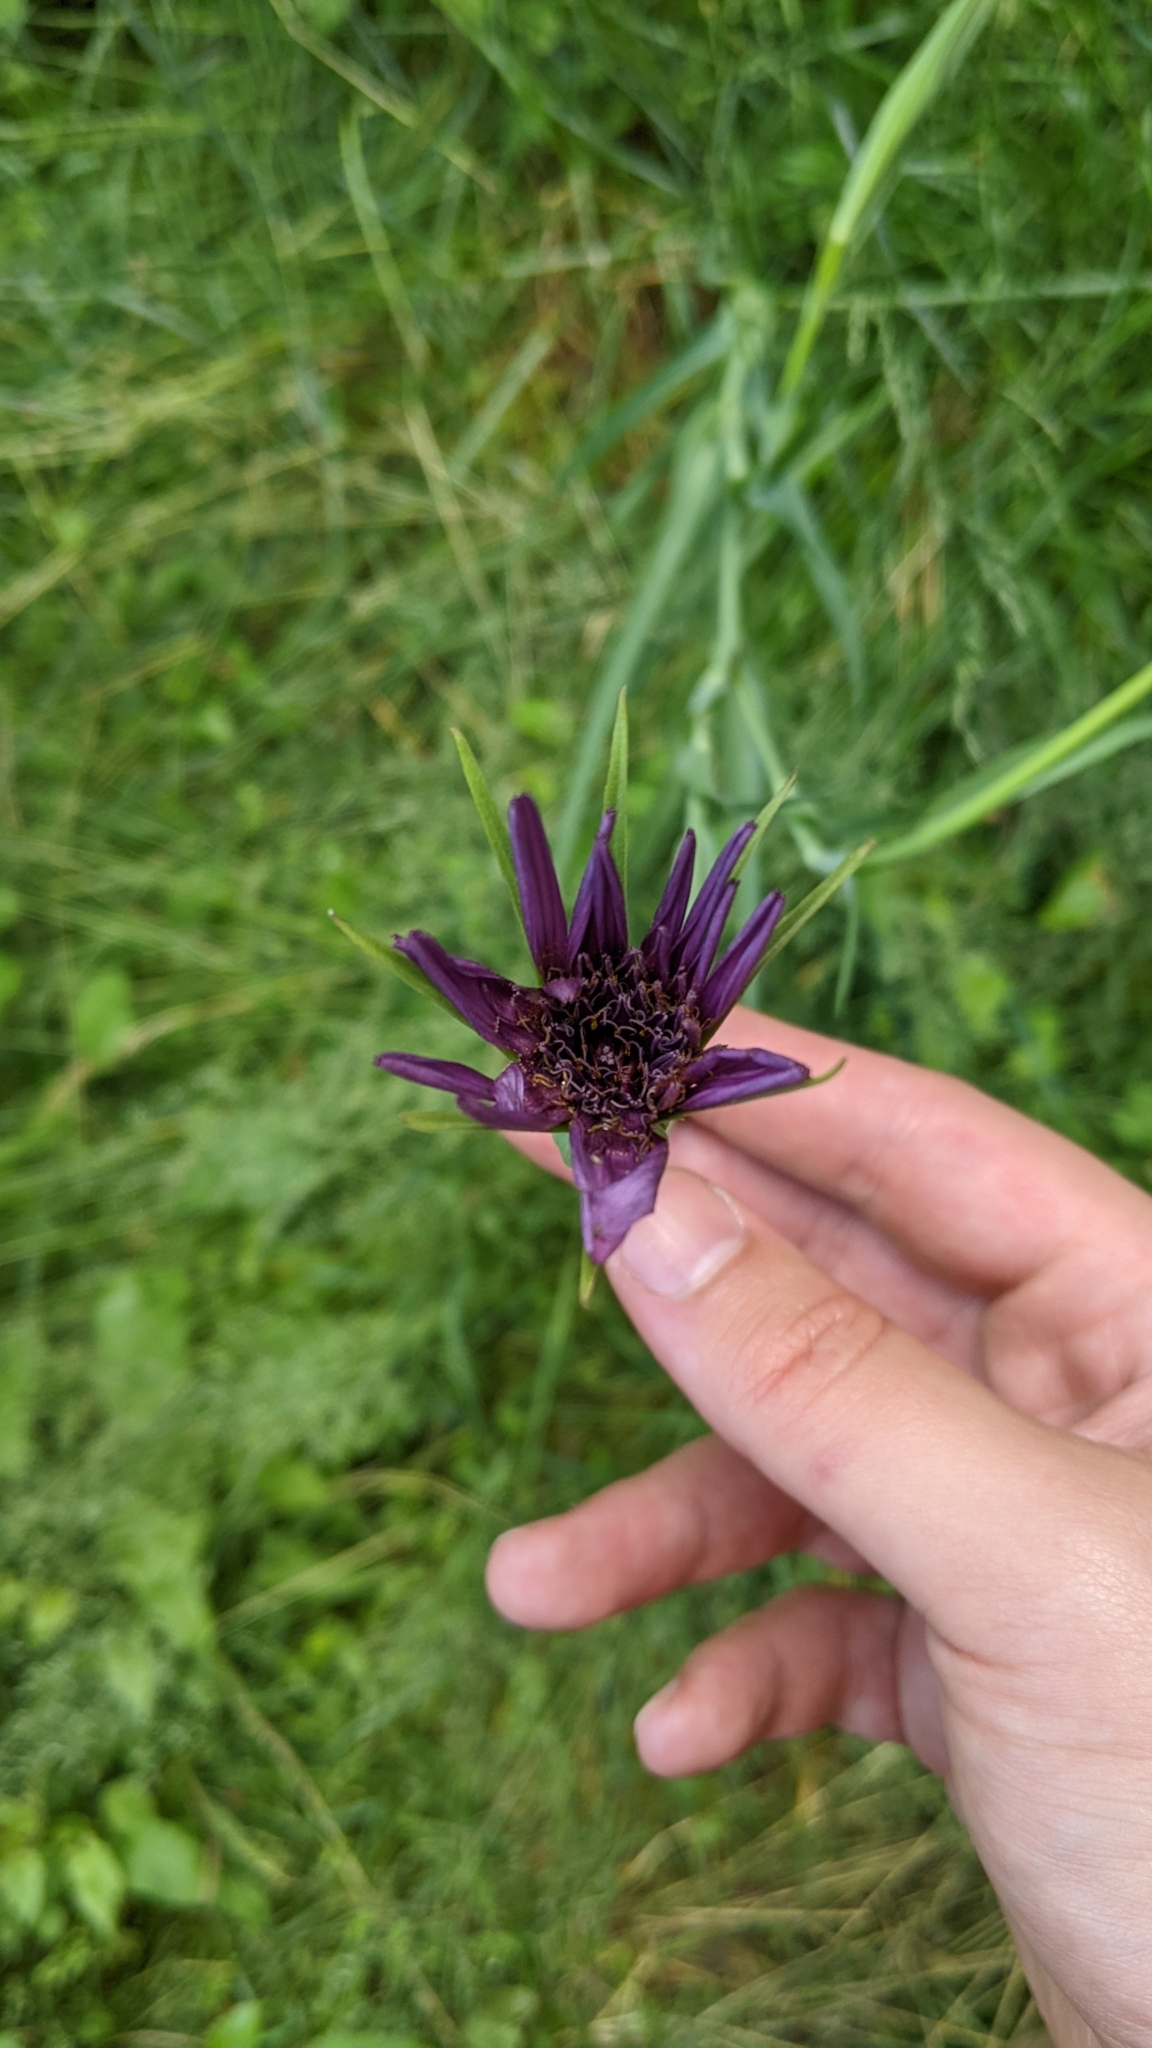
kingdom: Plantae
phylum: Tracheophyta
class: Magnoliopsida
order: Asterales
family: Asteraceae
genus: Tragopogon
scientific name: Tragopogon porrifolius
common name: Salsify
